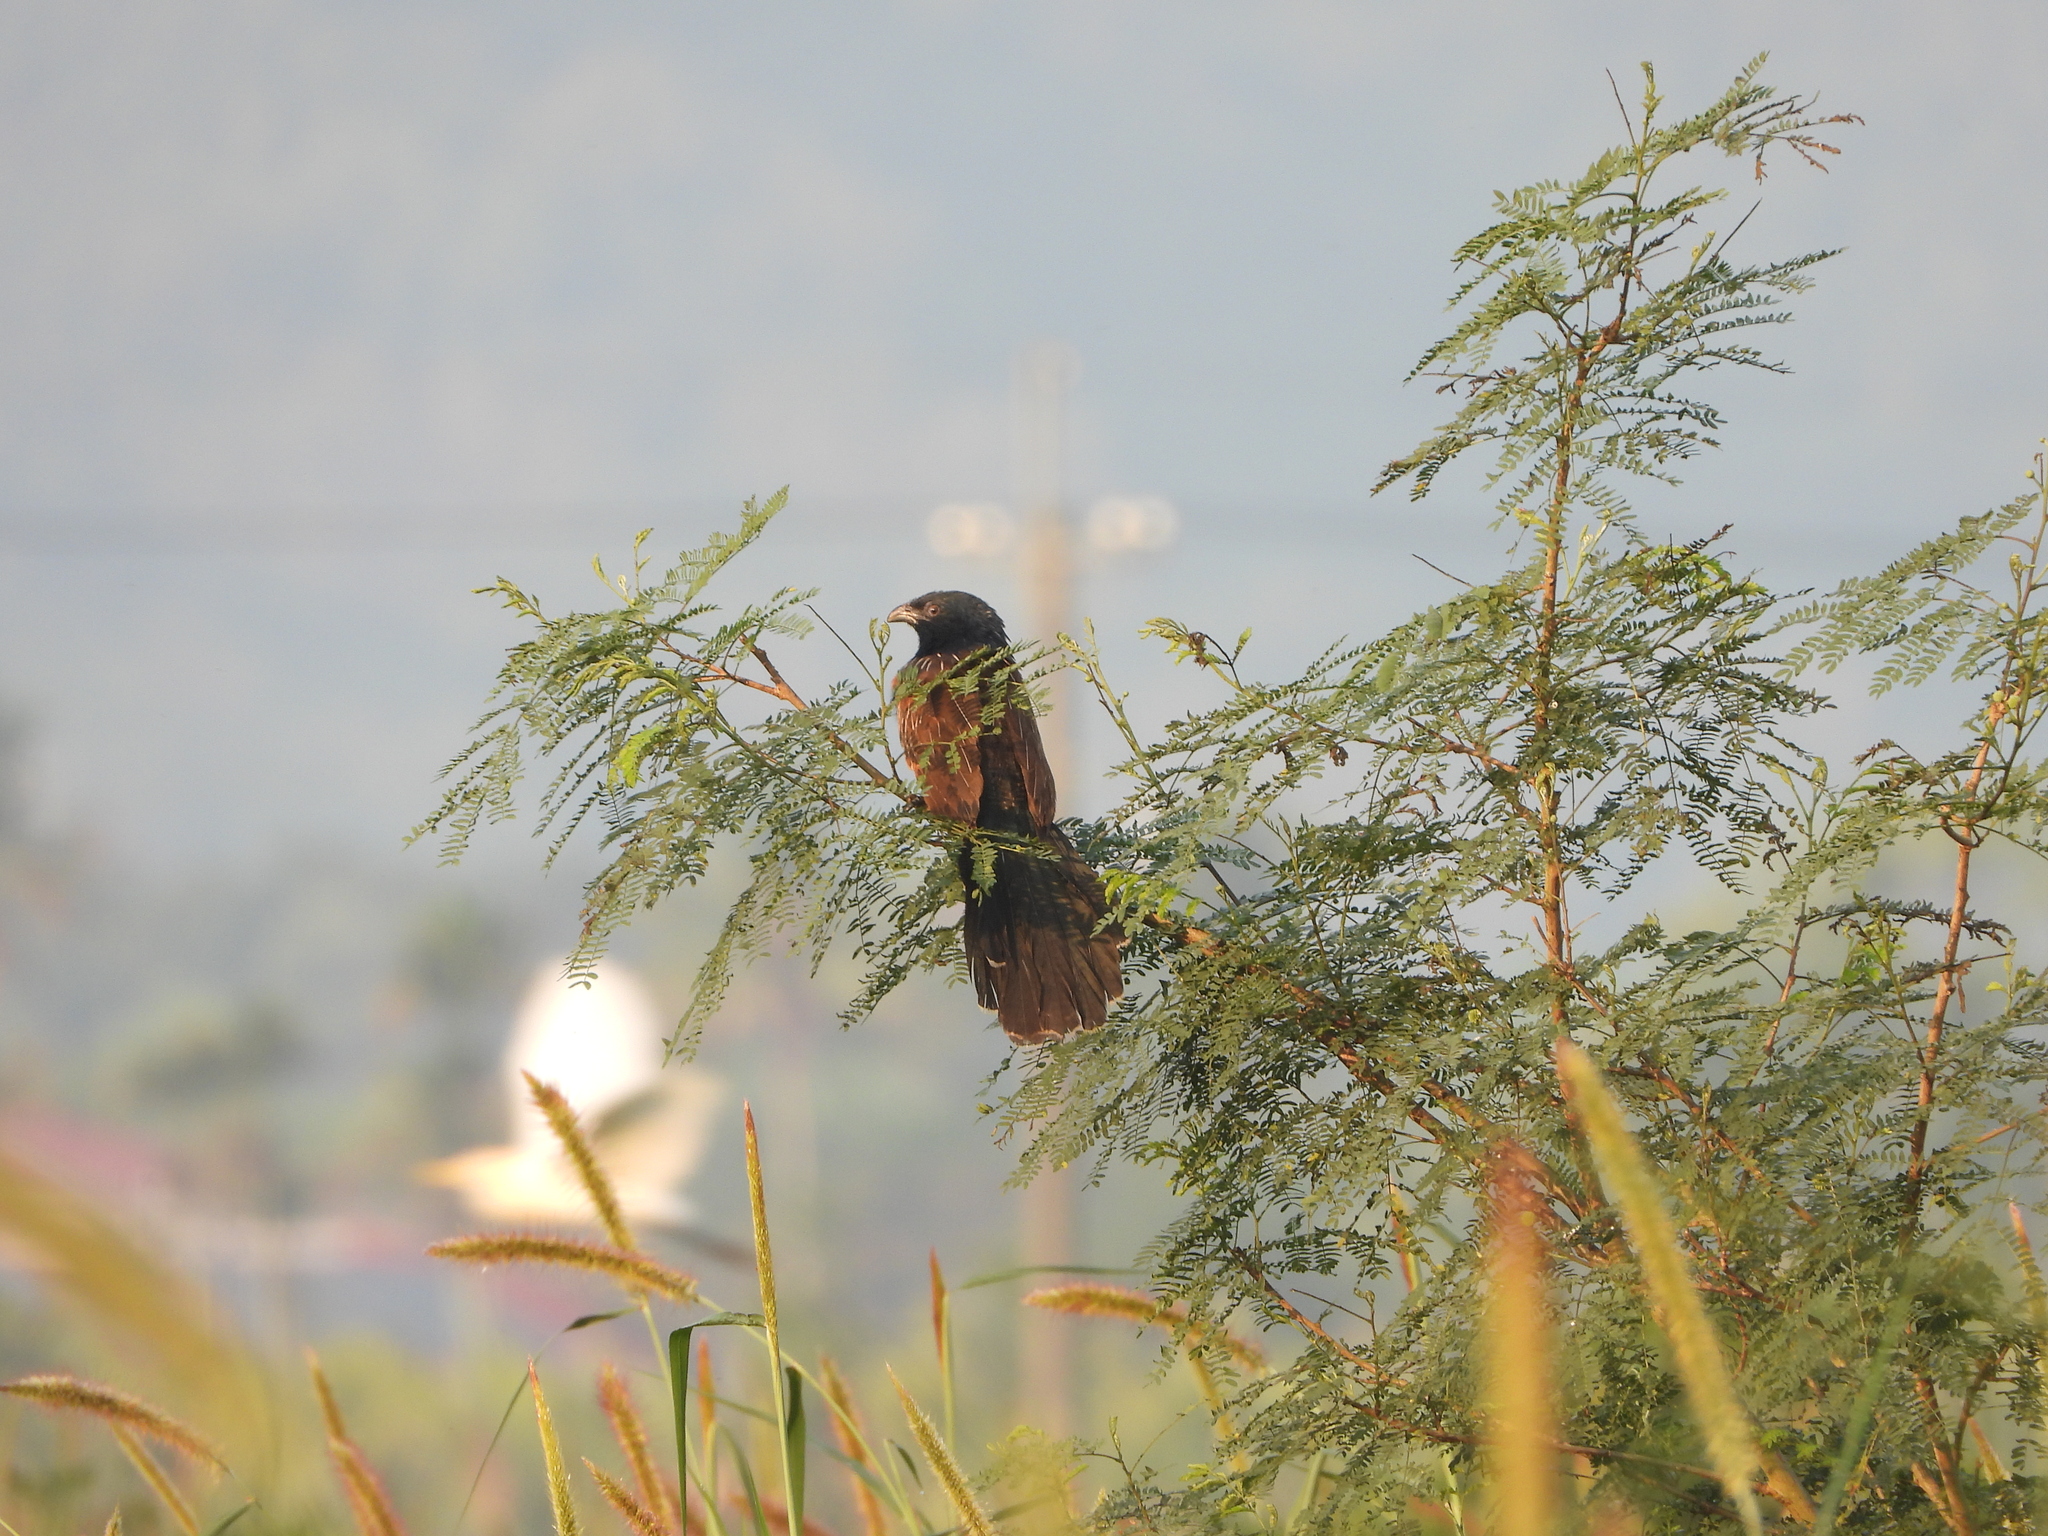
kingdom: Animalia
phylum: Chordata
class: Aves
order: Cuculiformes
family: Cuculidae
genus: Centropus
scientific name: Centropus bengalensis
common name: Lesser coucal
